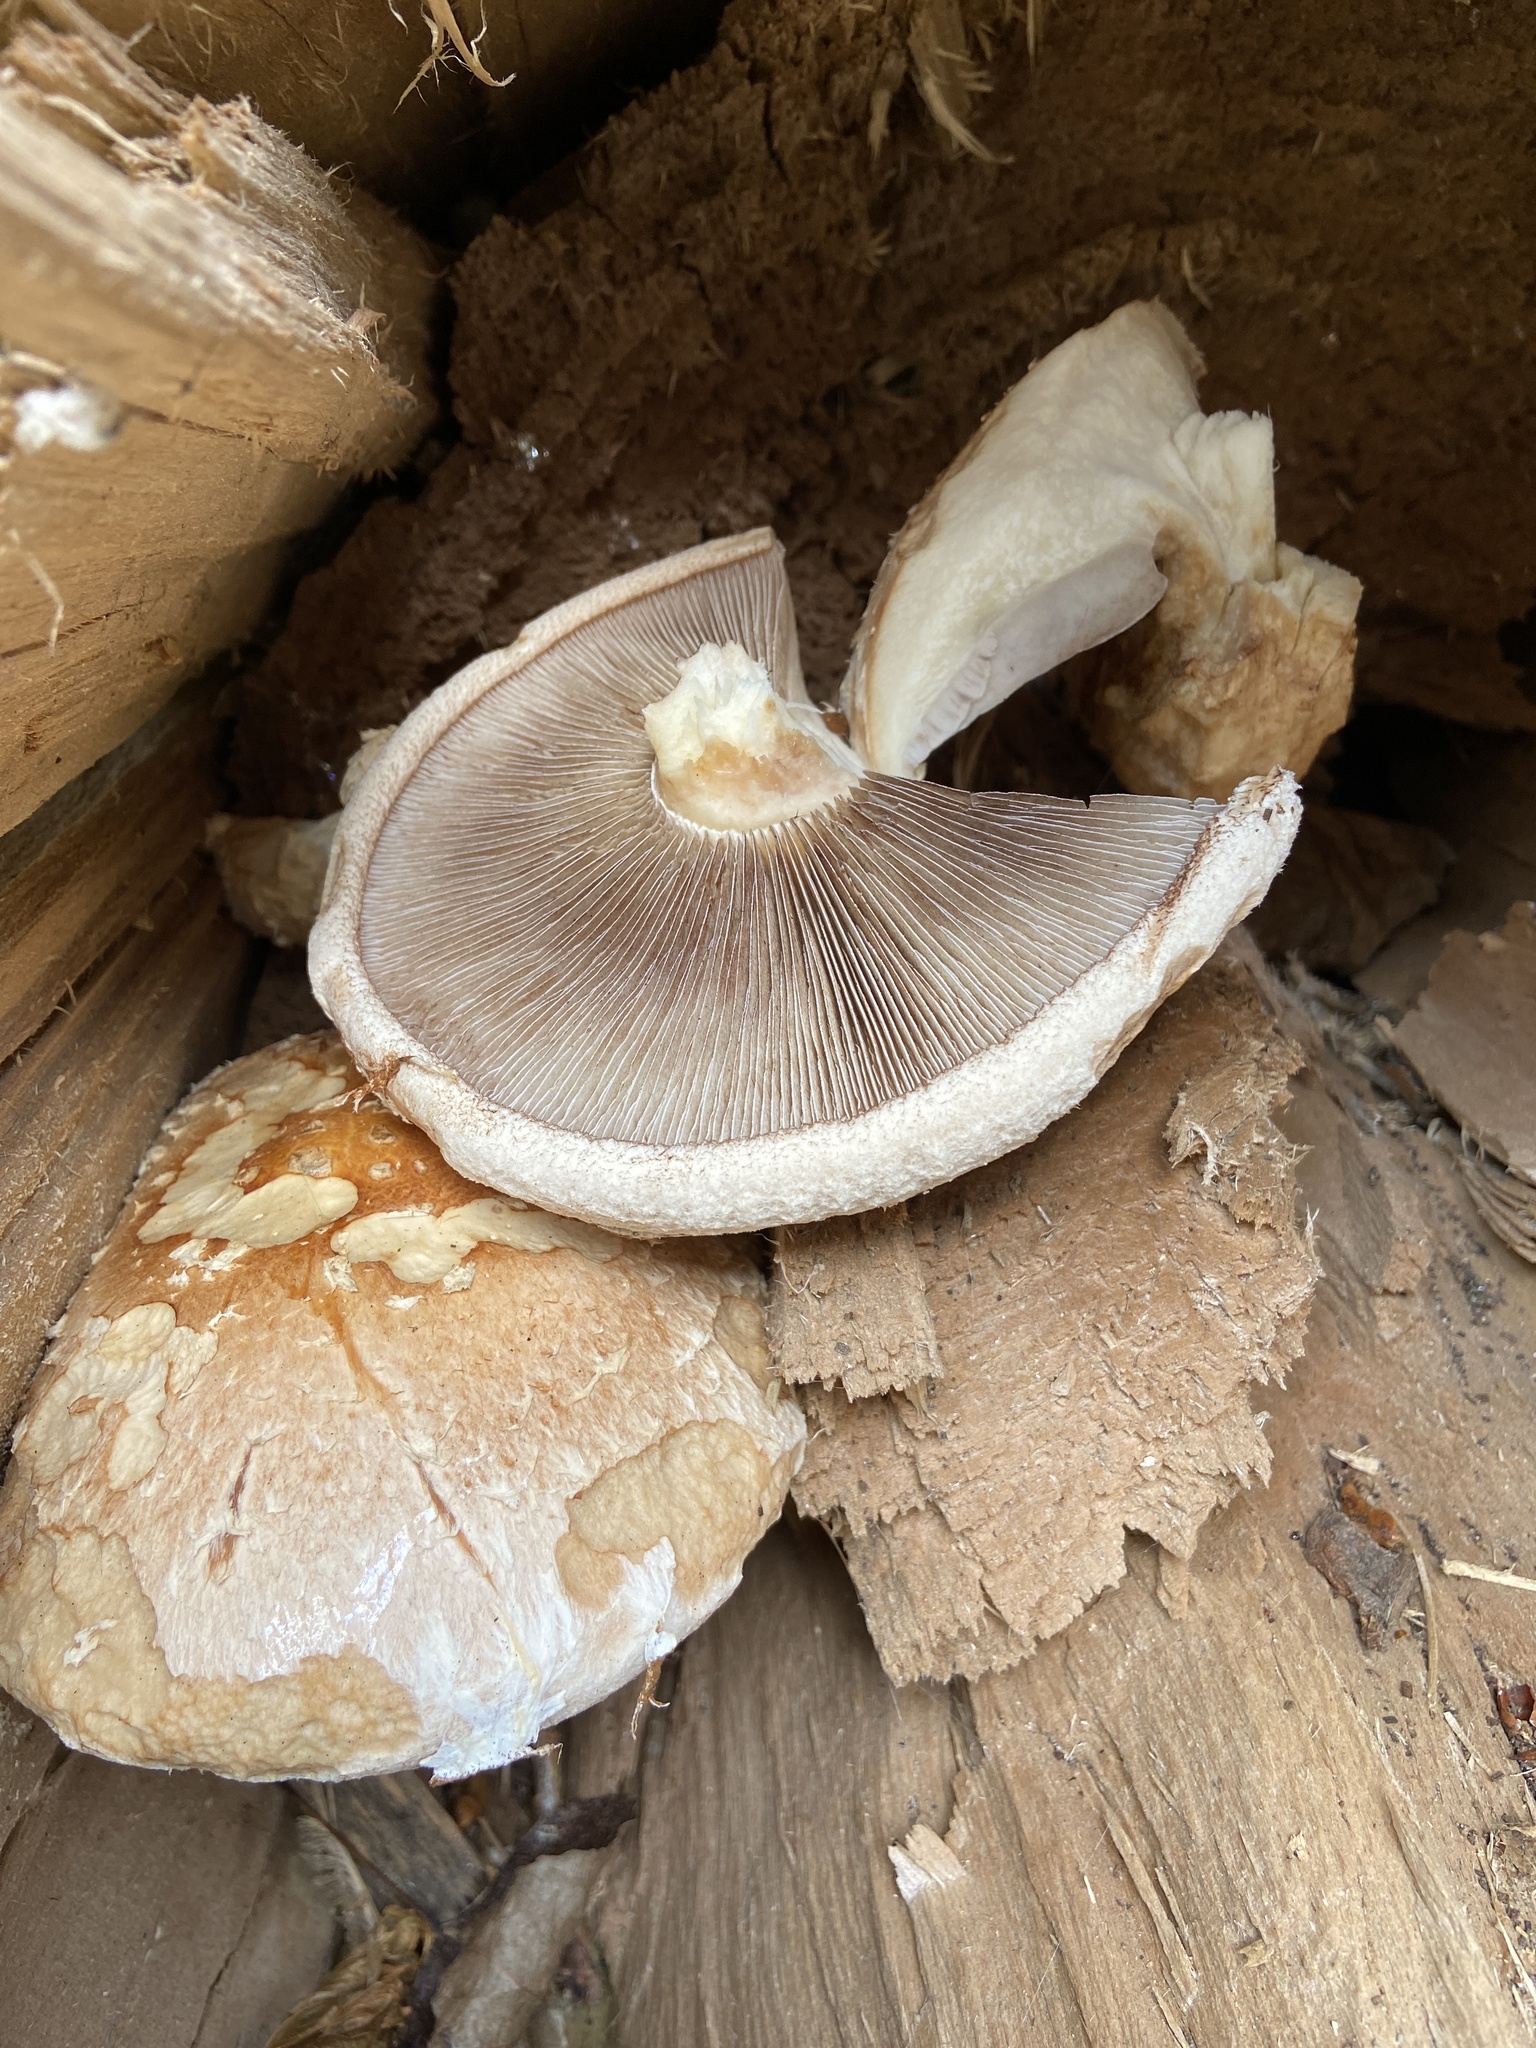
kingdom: Fungi
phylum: Basidiomycota
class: Agaricomycetes
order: Agaricales
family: Strophariaceae
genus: Pholiota
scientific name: Pholiota populnea
